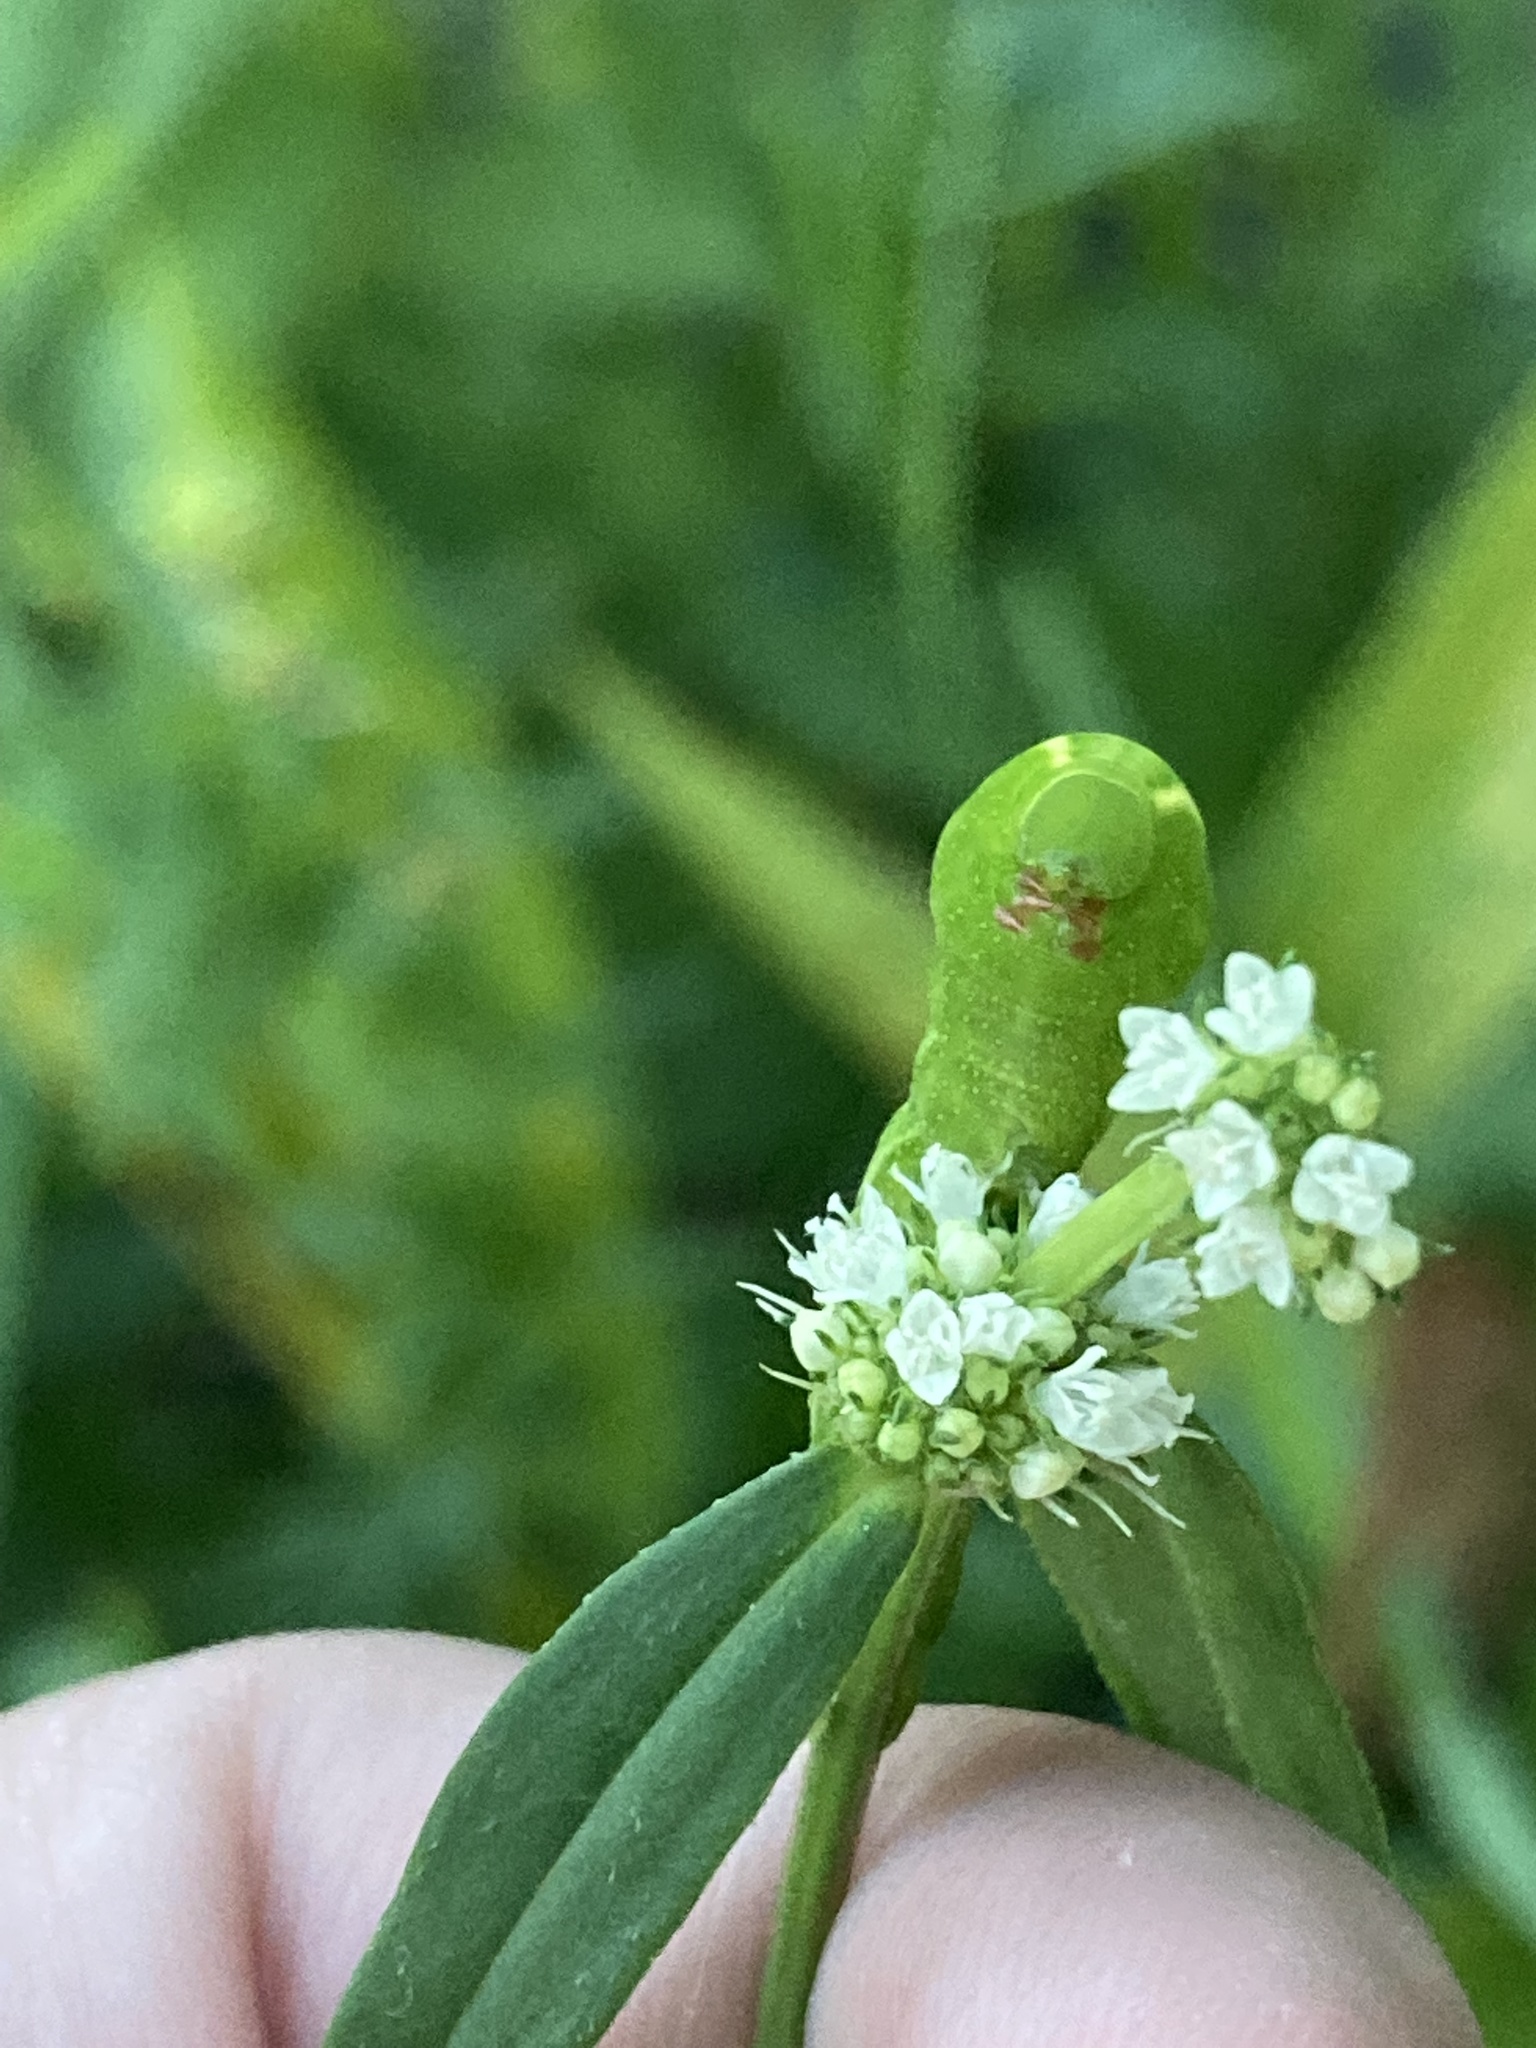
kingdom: Animalia
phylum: Arthropoda
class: Insecta
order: Lepidoptera
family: Sphingidae
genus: Xylophanes
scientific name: Xylophanes tersa
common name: Tersa sphinx
